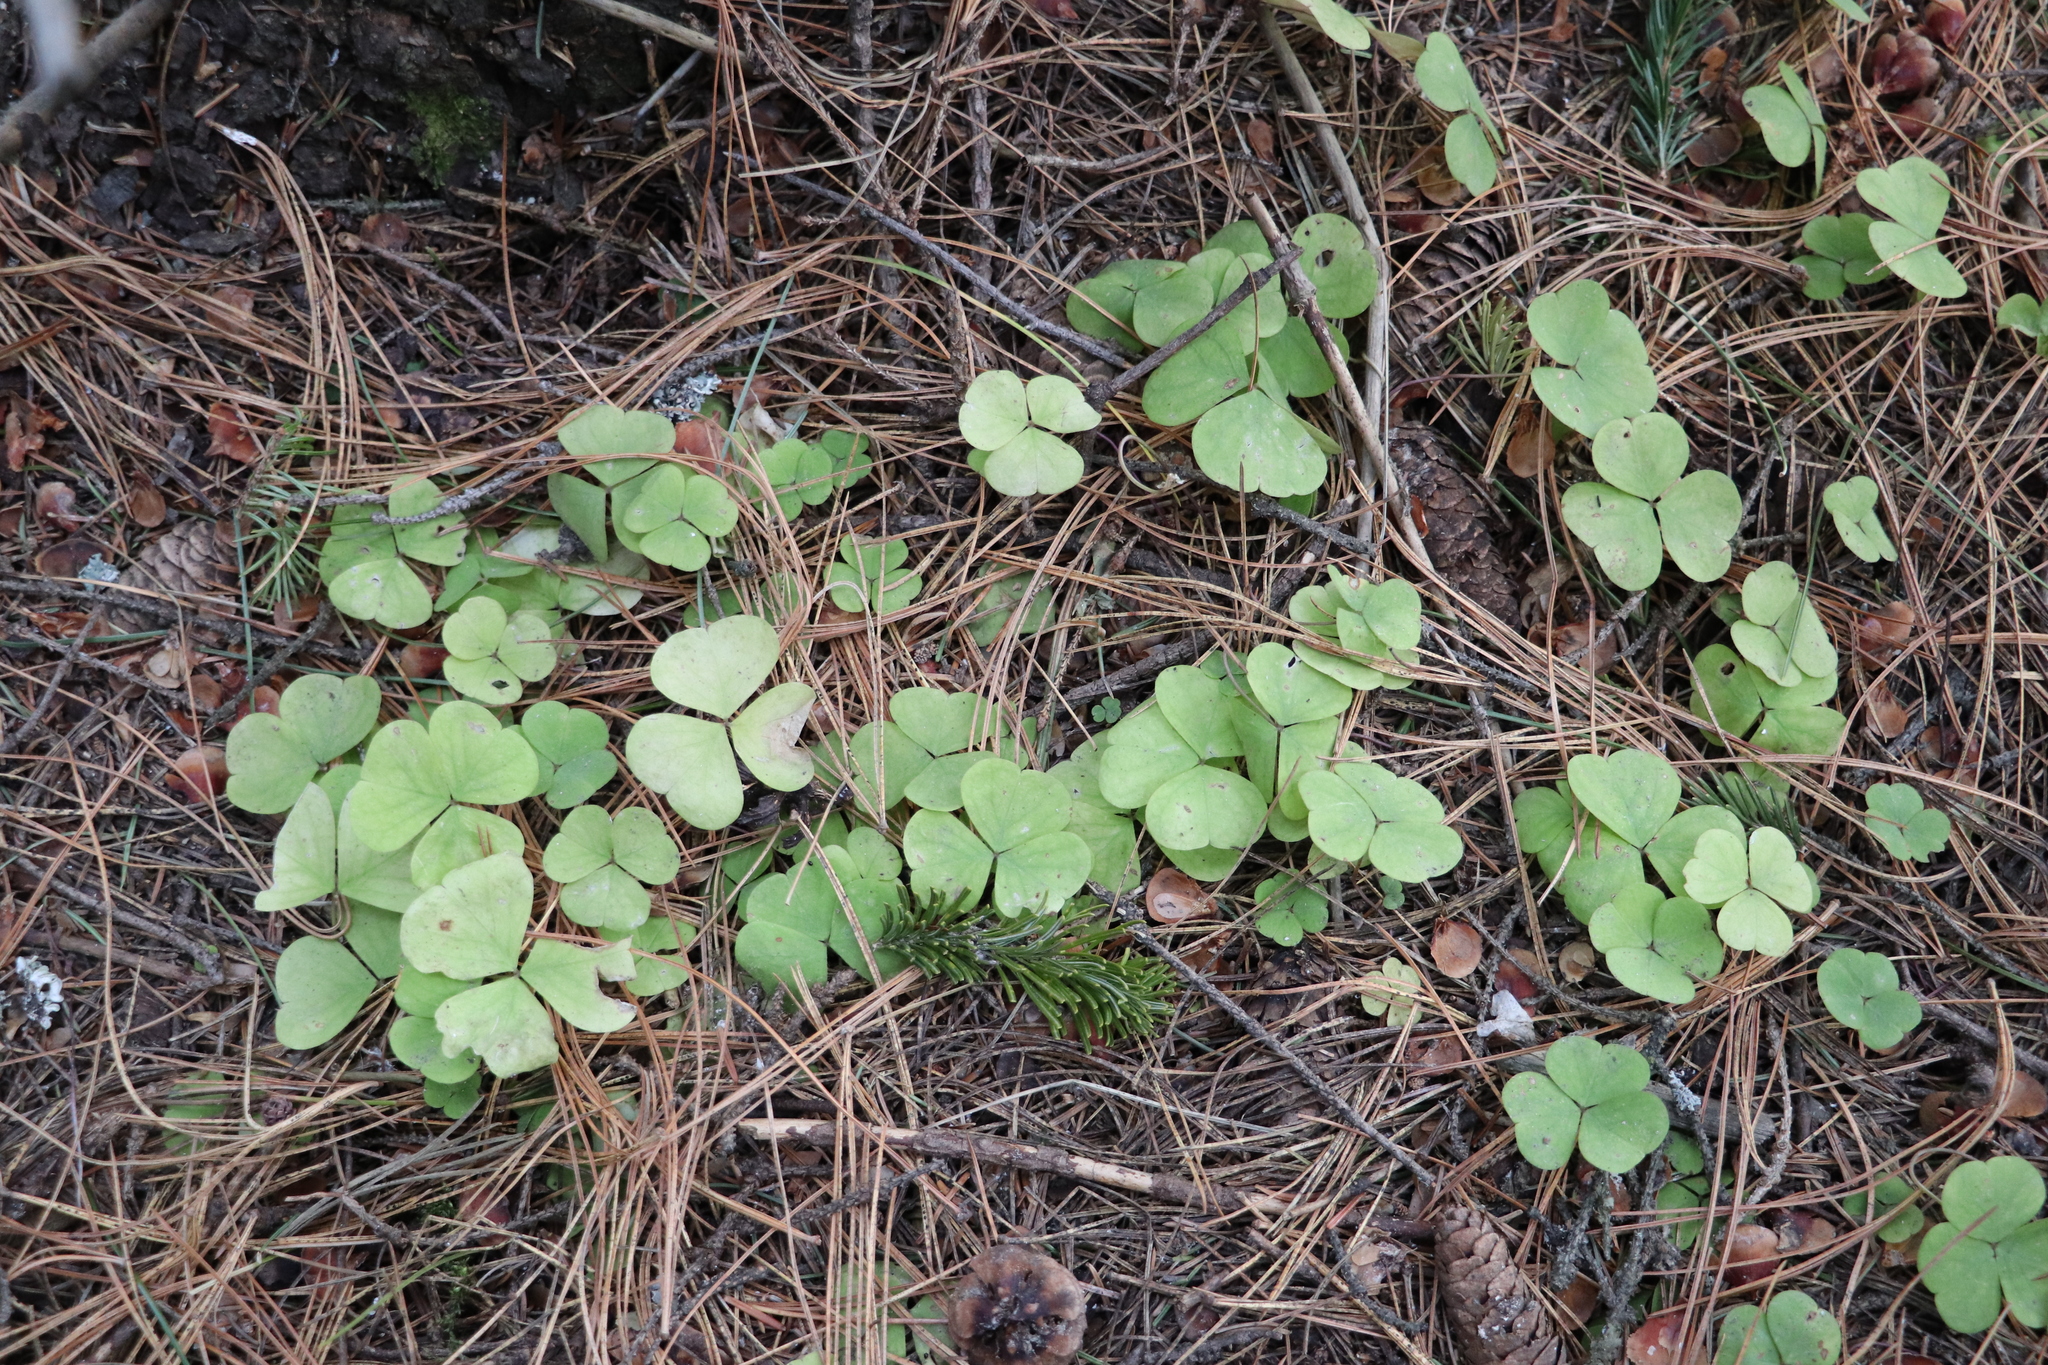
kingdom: Plantae
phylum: Tracheophyta
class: Magnoliopsida
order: Oxalidales
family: Oxalidaceae
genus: Oxalis
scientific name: Oxalis acetosella
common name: Wood-sorrel
